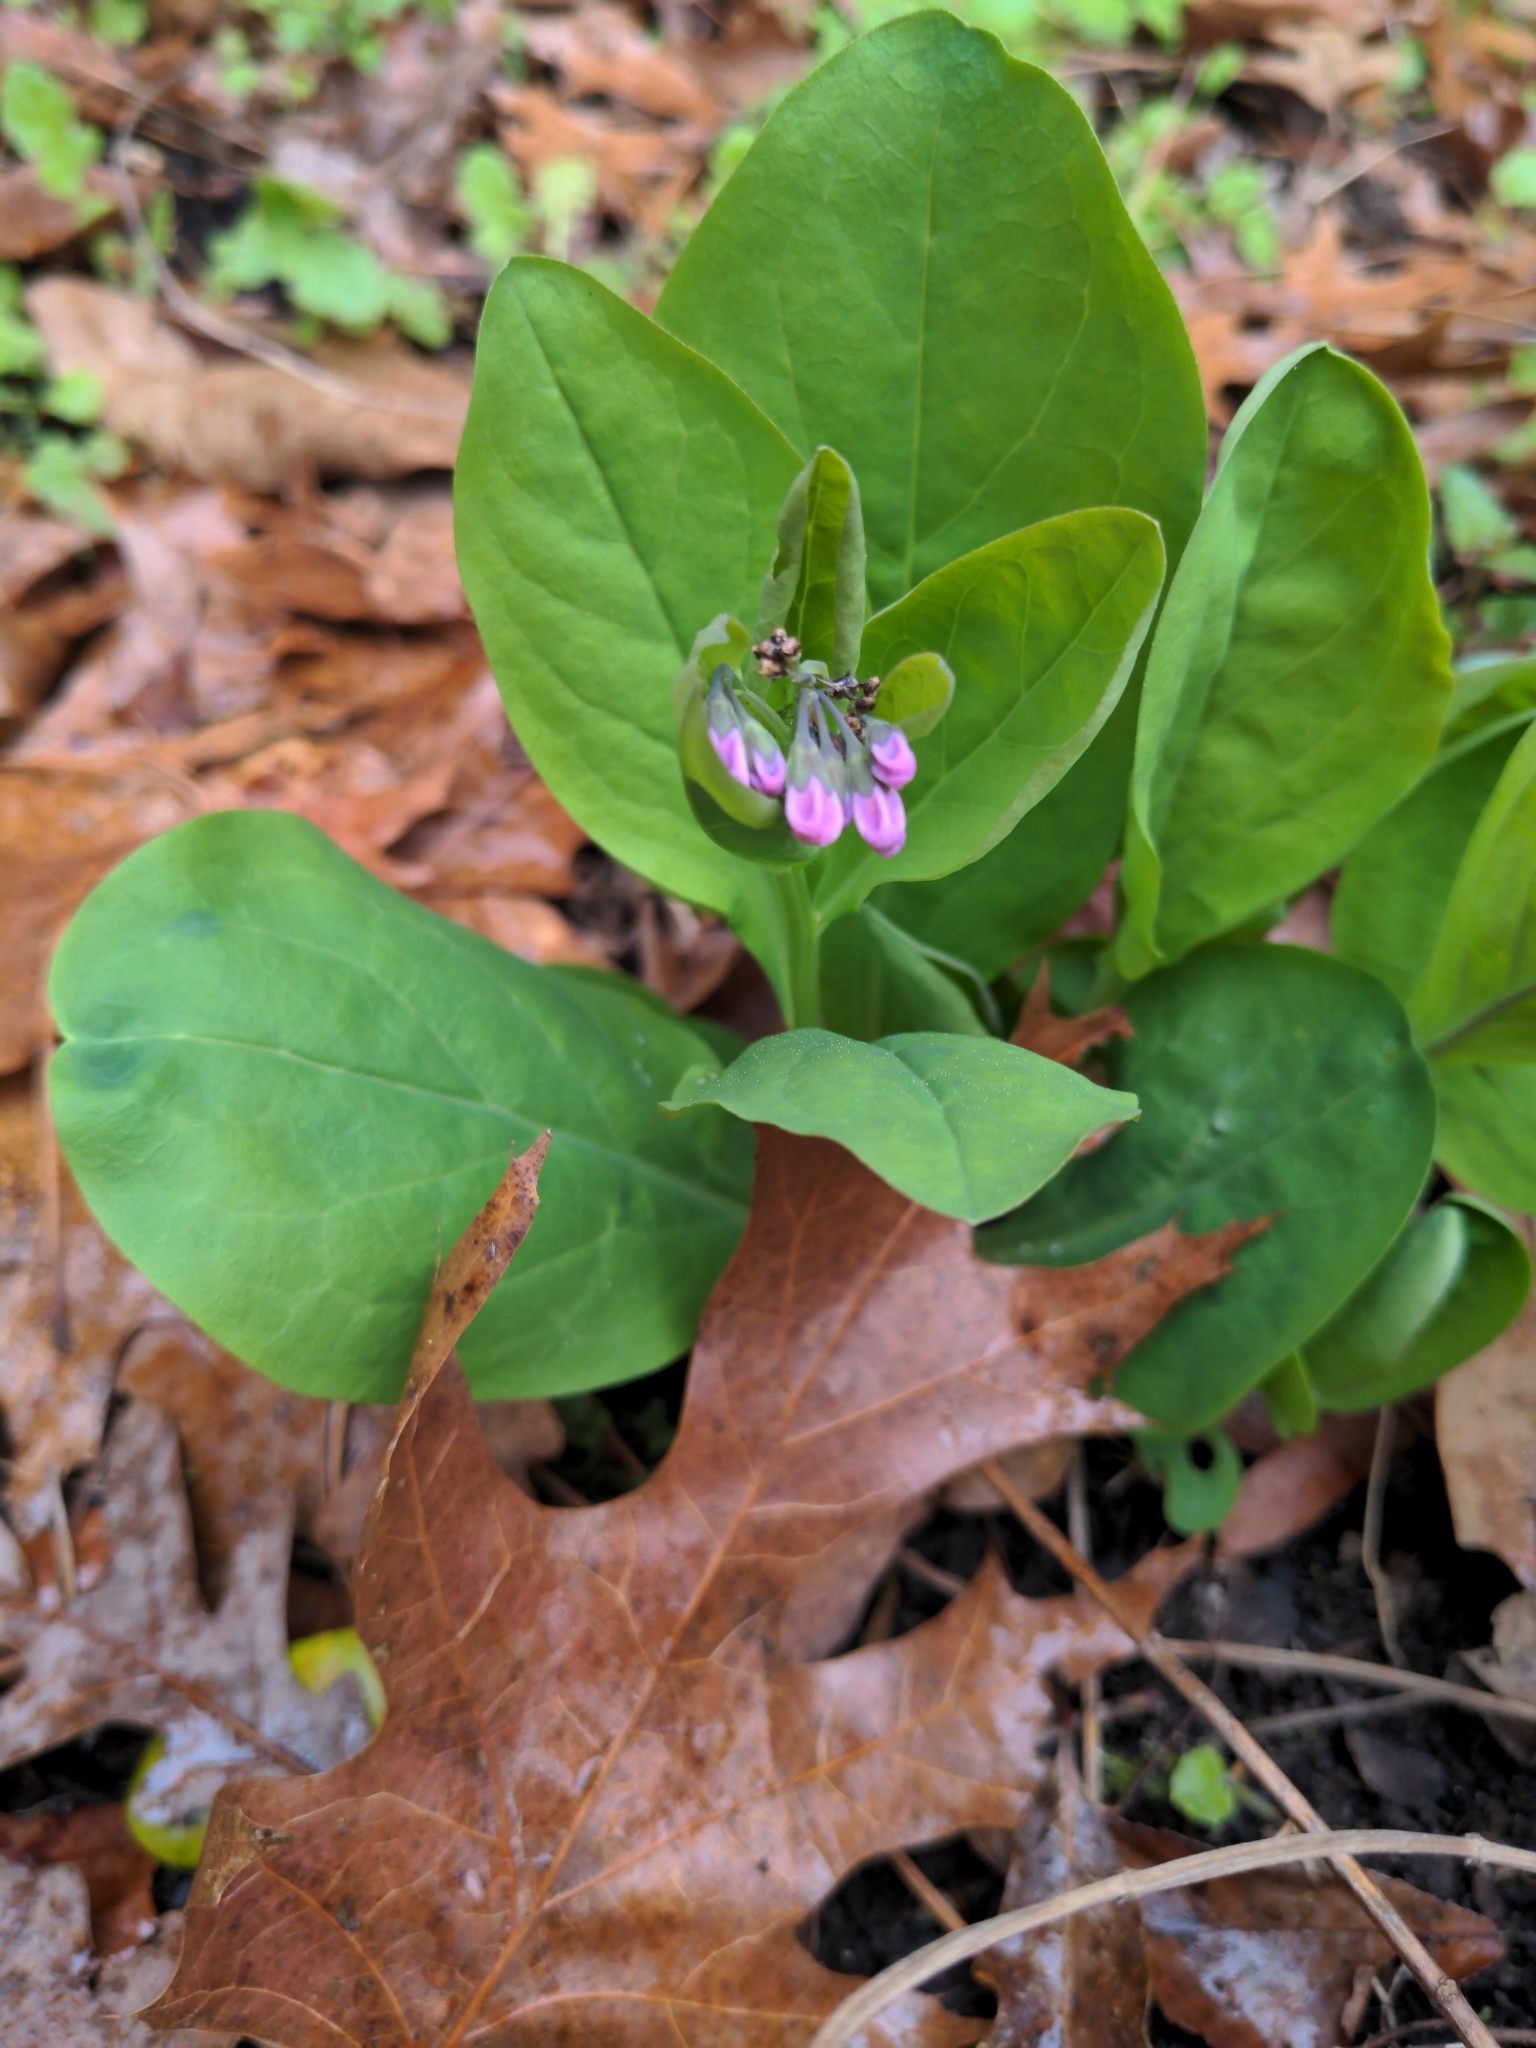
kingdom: Plantae
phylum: Tracheophyta
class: Magnoliopsida
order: Boraginales
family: Boraginaceae
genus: Mertensia
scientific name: Mertensia virginica
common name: Virginia bluebells
